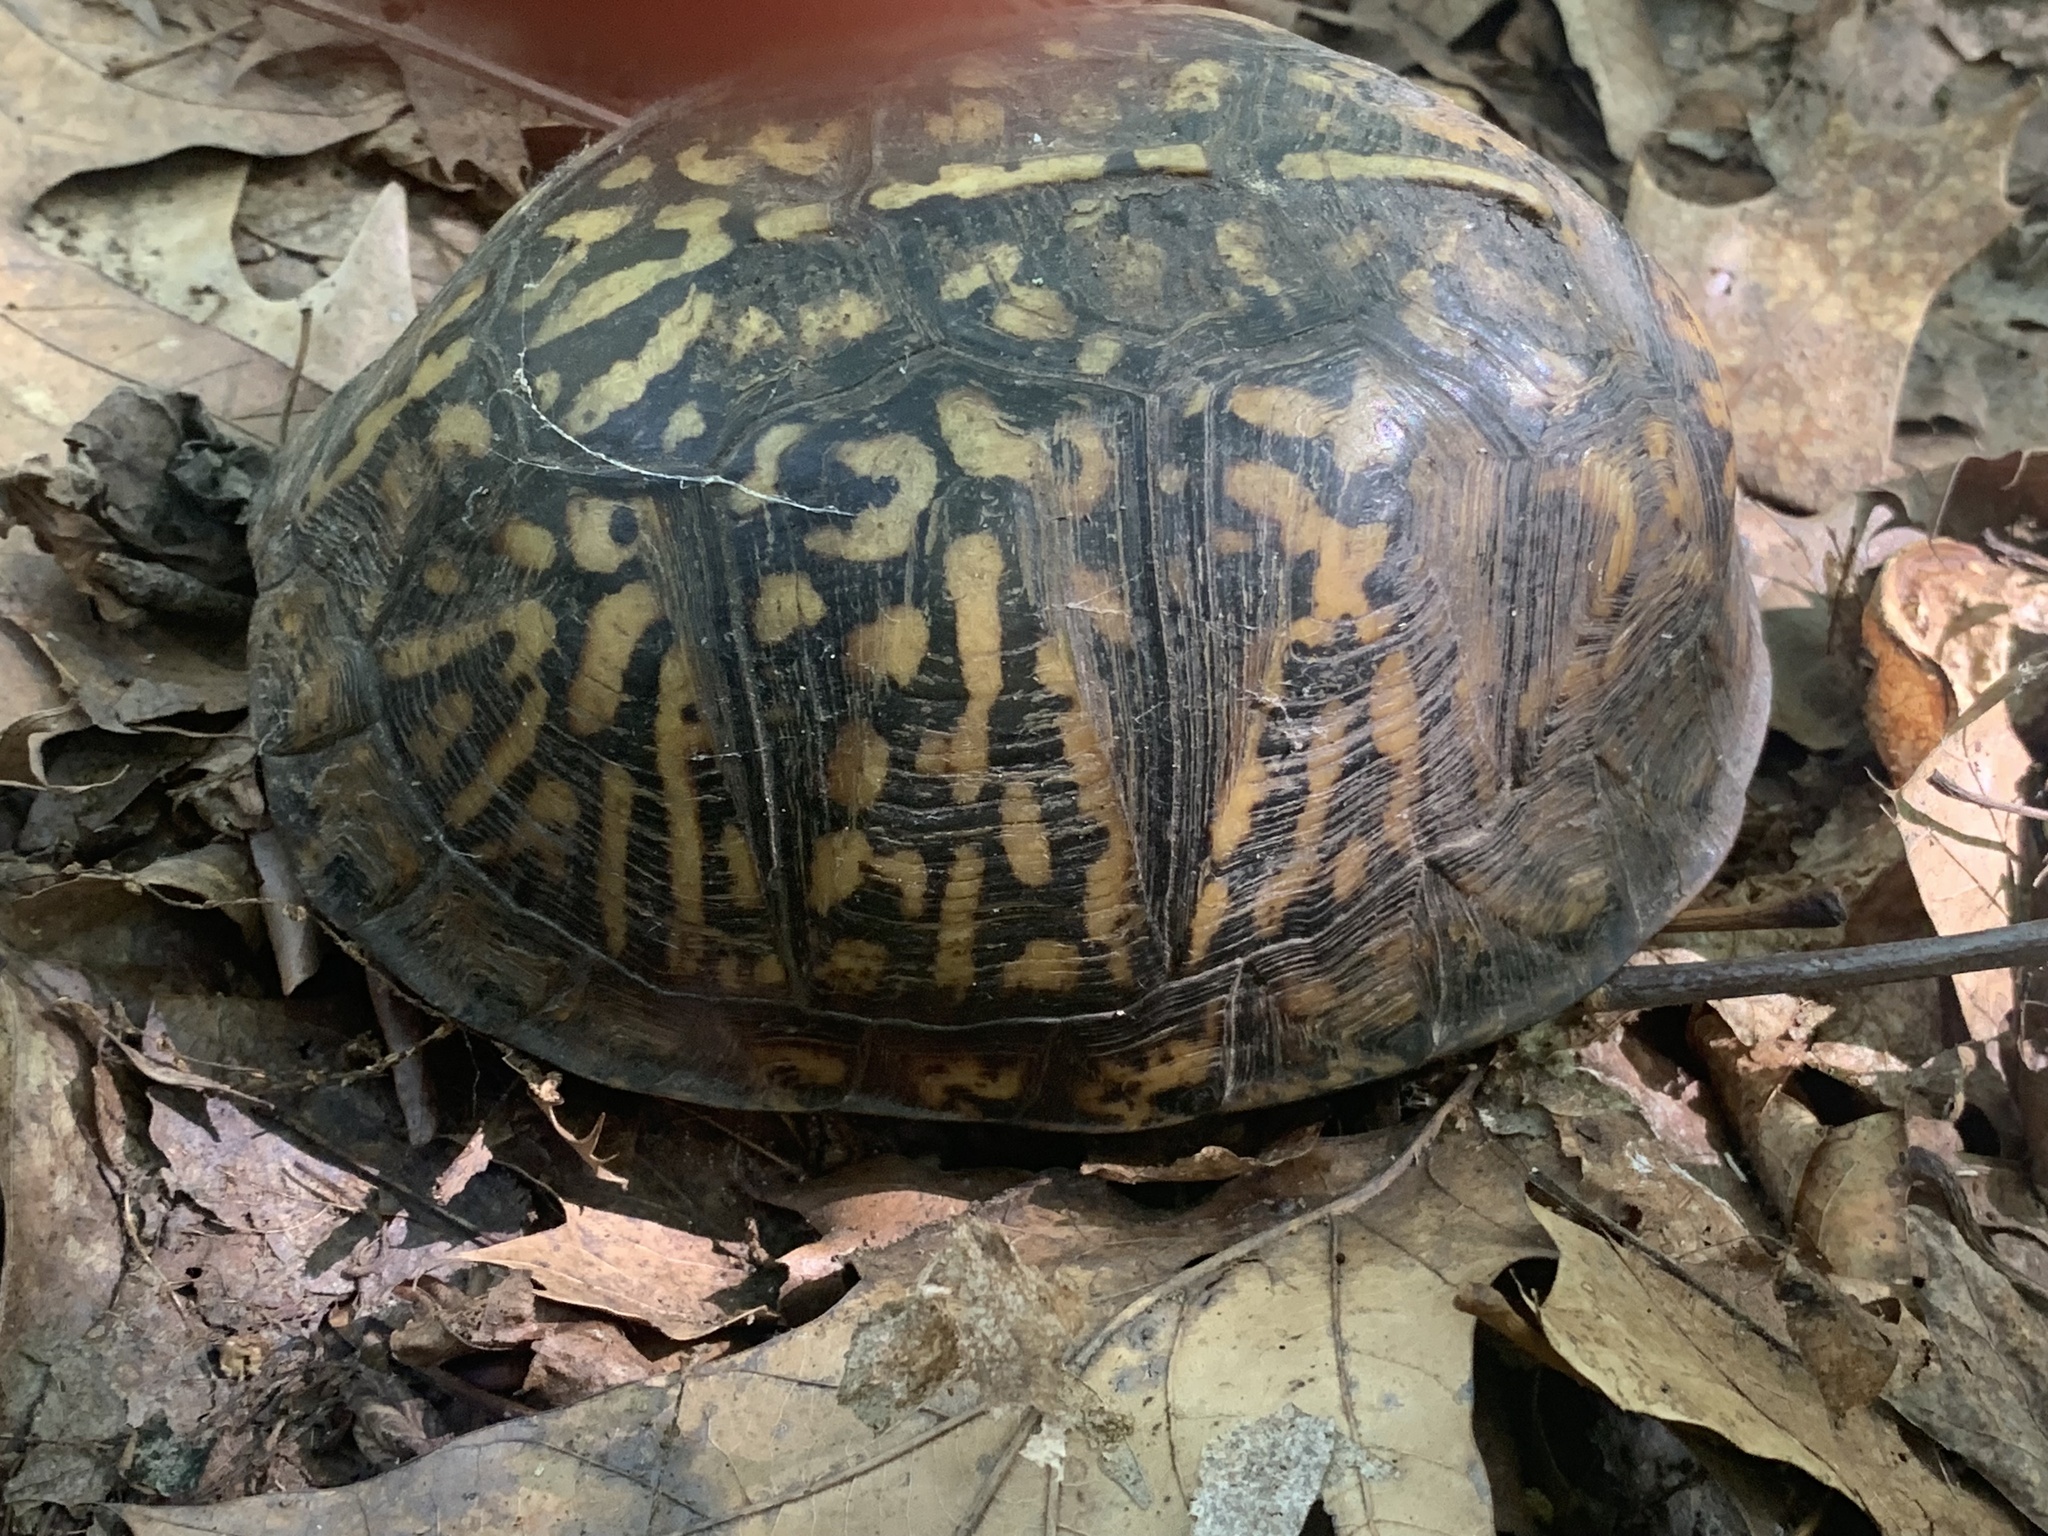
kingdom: Animalia
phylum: Chordata
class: Testudines
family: Emydidae
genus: Terrapene
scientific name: Terrapene carolina
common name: Common box turtle
